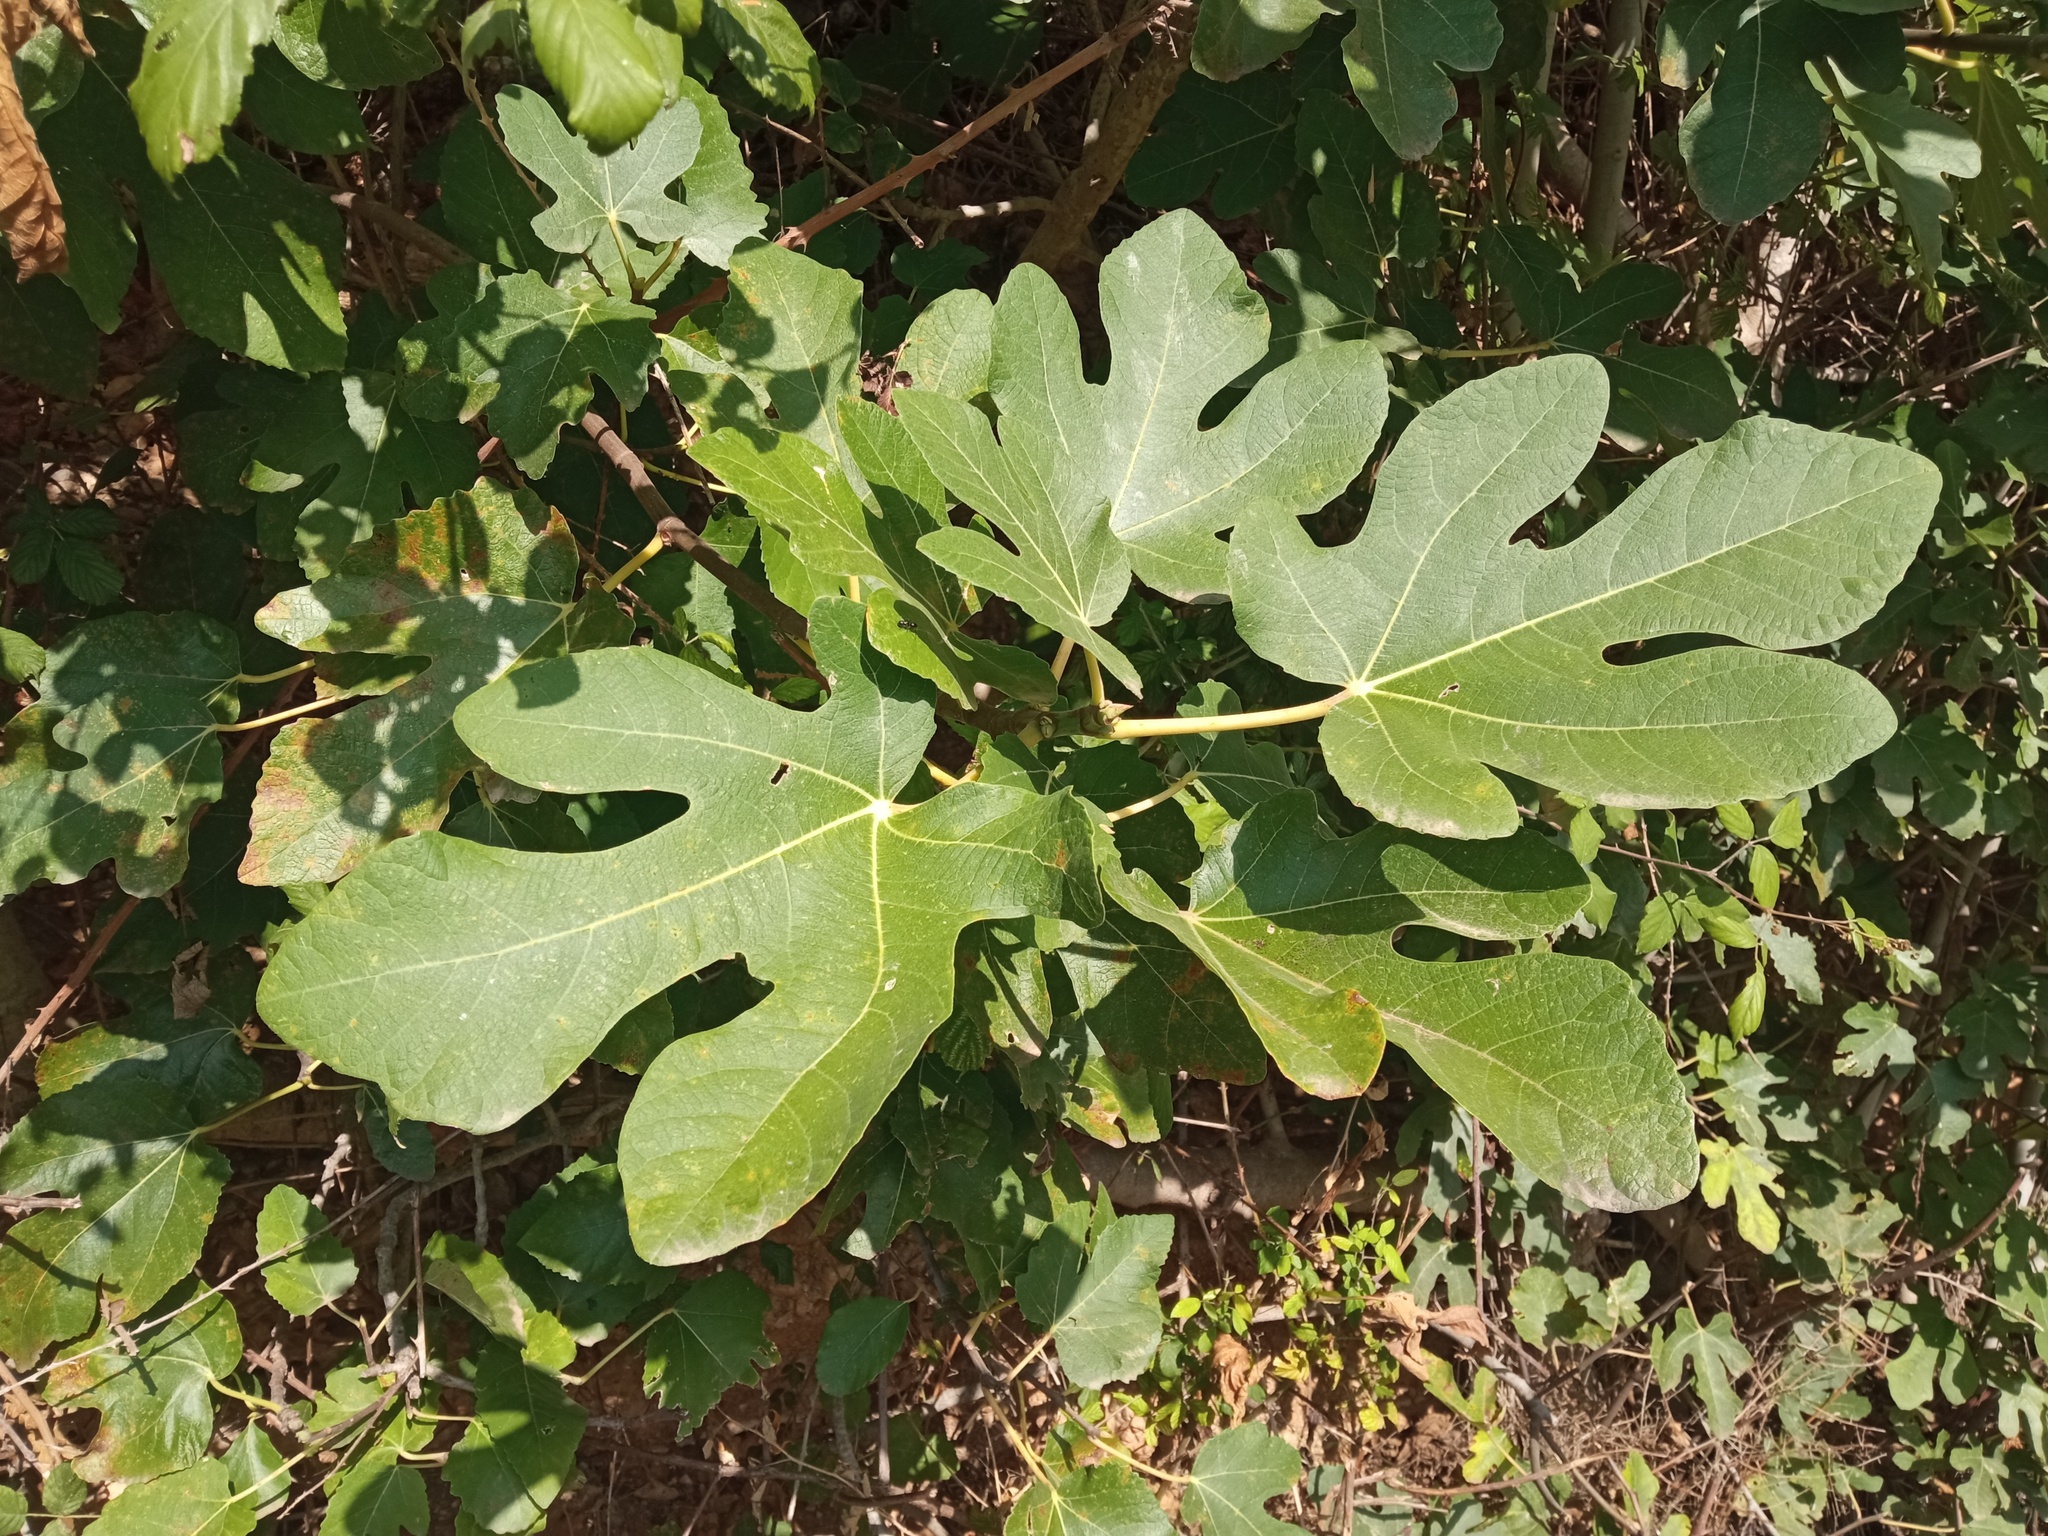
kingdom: Plantae
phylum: Tracheophyta
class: Magnoliopsida
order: Rosales
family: Moraceae
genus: Ficus
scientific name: Ficus carica
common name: Fig
